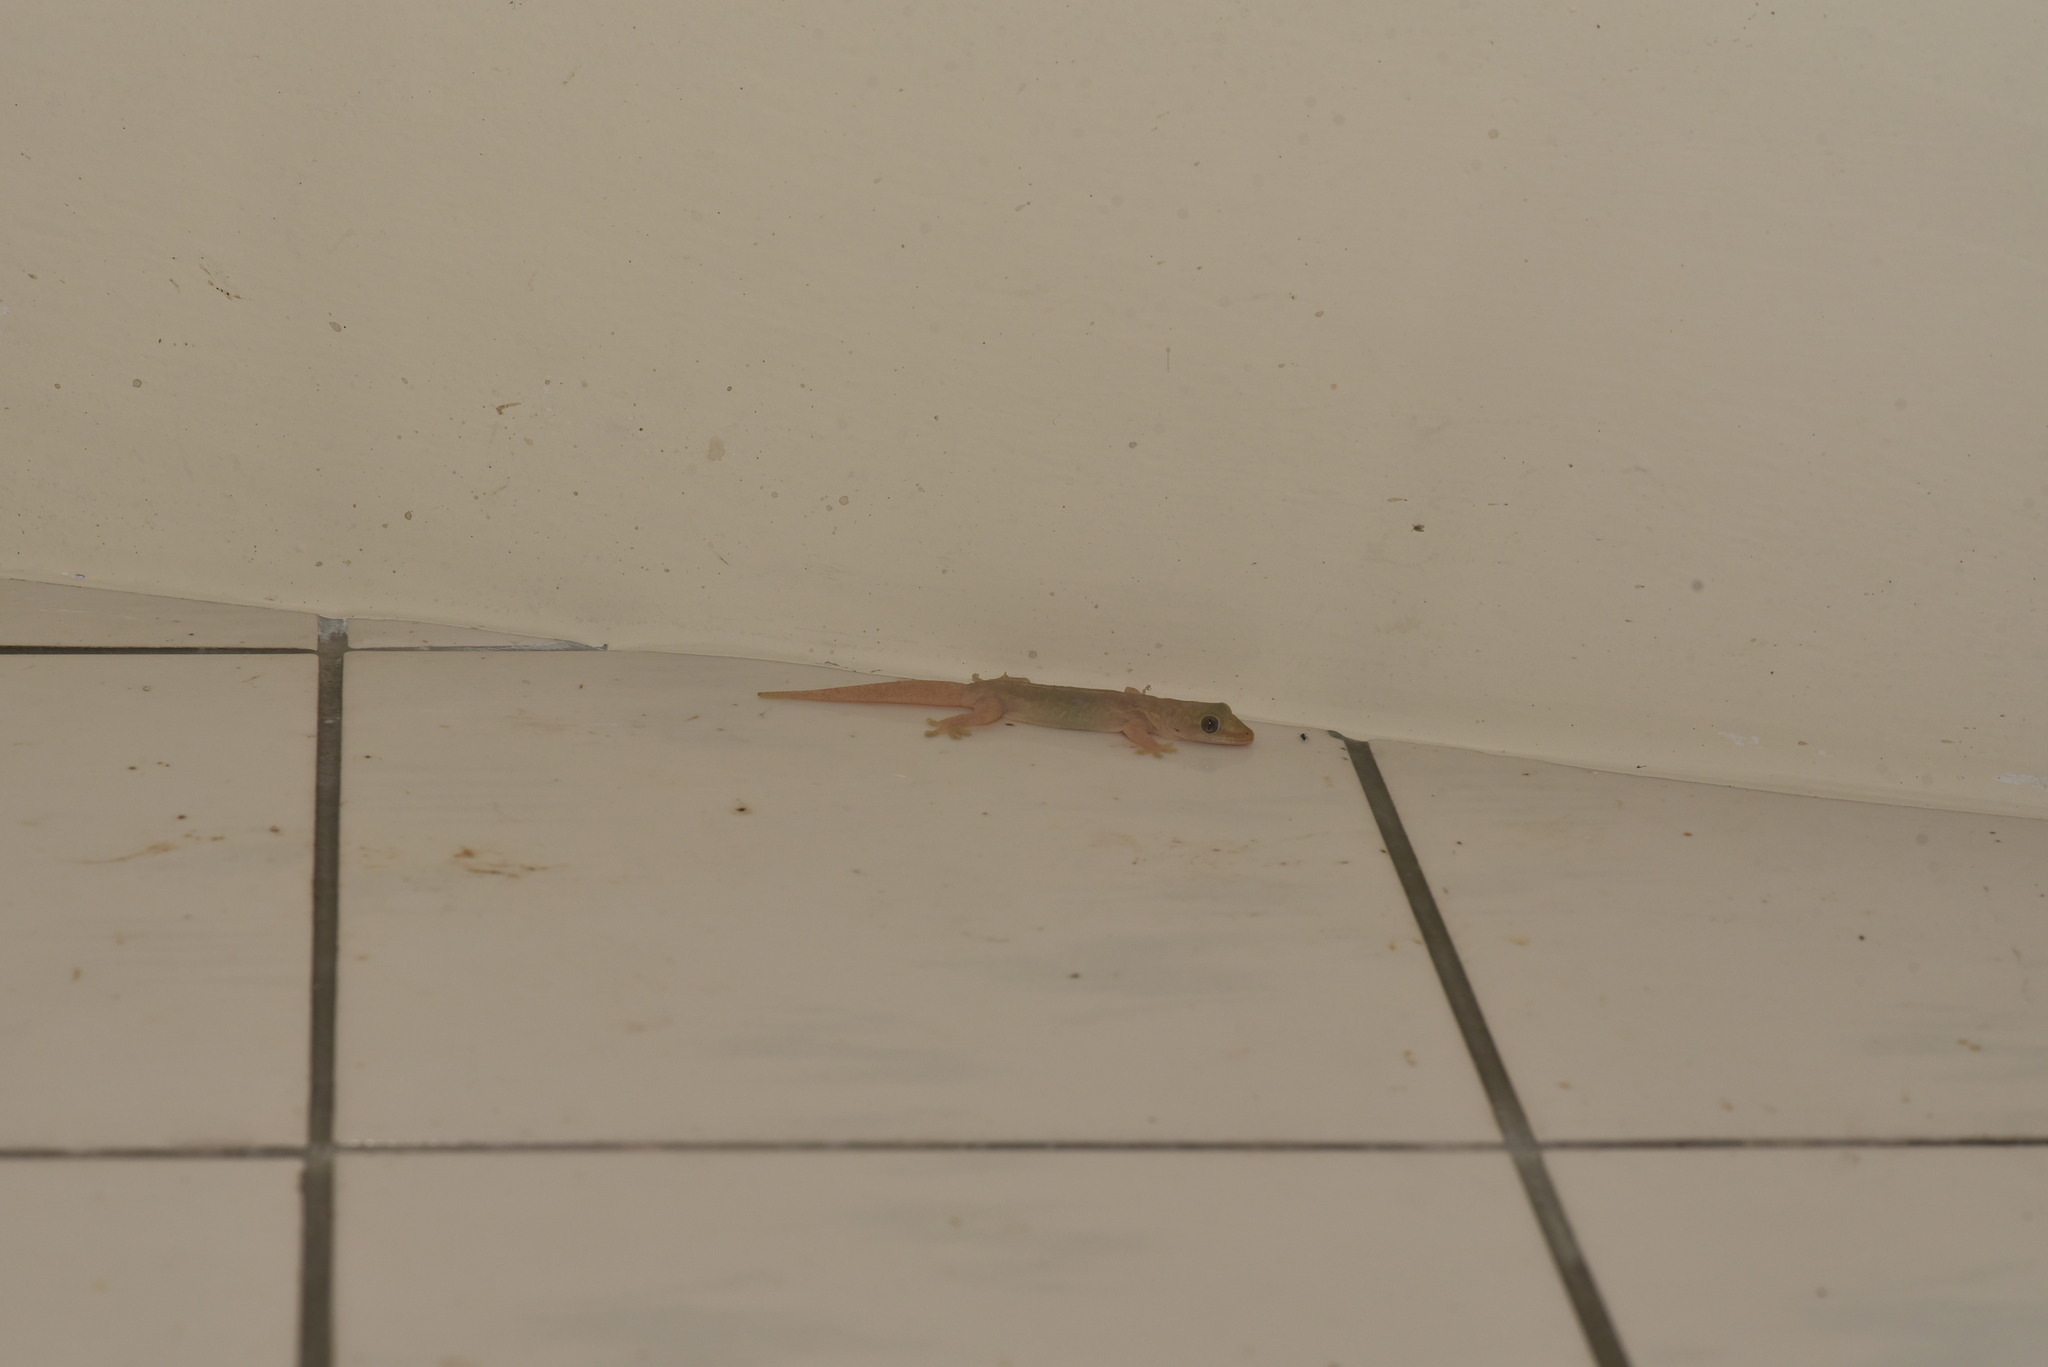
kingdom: Animalia
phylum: Chordata
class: Squamata
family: Gekkonidae
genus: Hemidactylus
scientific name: Hemidactylus frenatus
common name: Common house gecko
